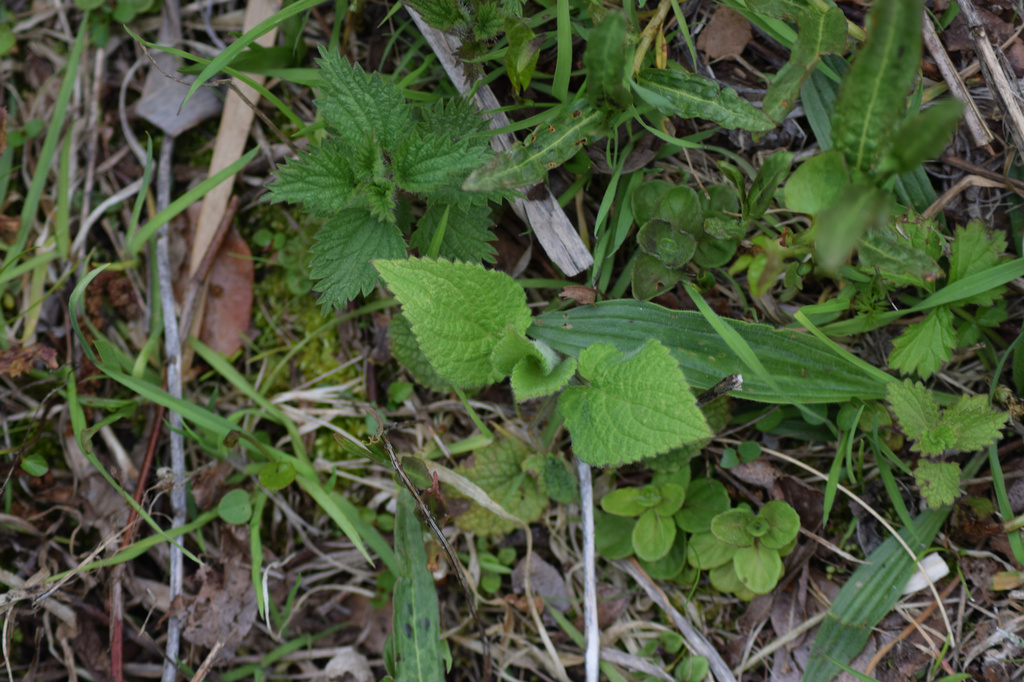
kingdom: Plantae
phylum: Tracheophyta
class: Magnoliopsida
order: Lamiales
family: Lamiaceae
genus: Stachys
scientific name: Stachys sylvatica
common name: Hedge woundwort
